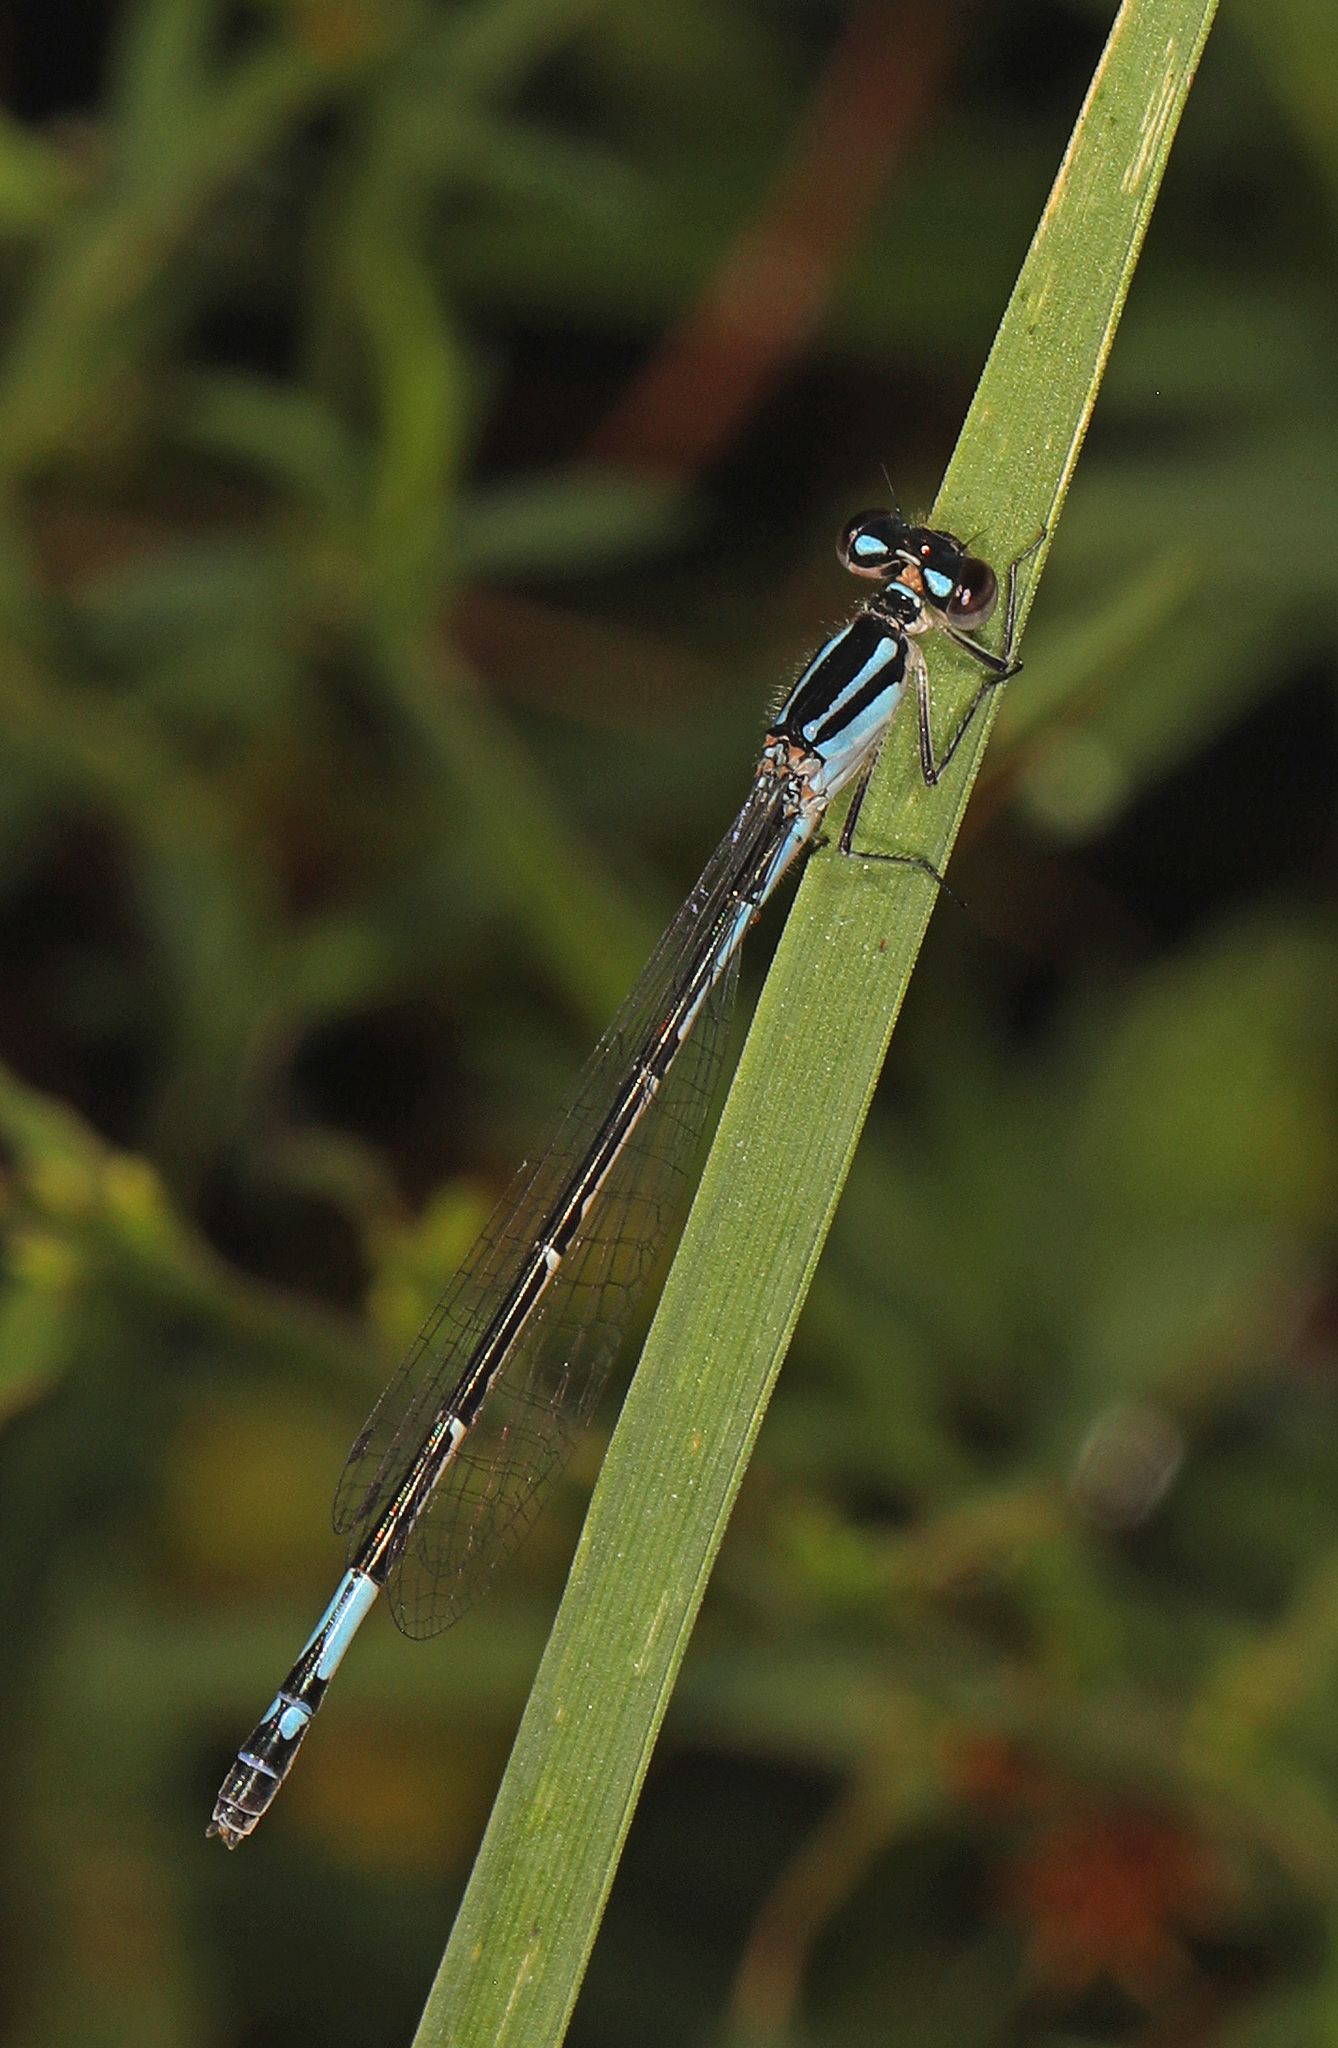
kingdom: Animalia
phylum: Arthropoda
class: Insecta
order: Odonata
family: Coenagrionidae
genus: Enallagma
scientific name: Enallagma aspersum
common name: Azure bluet
